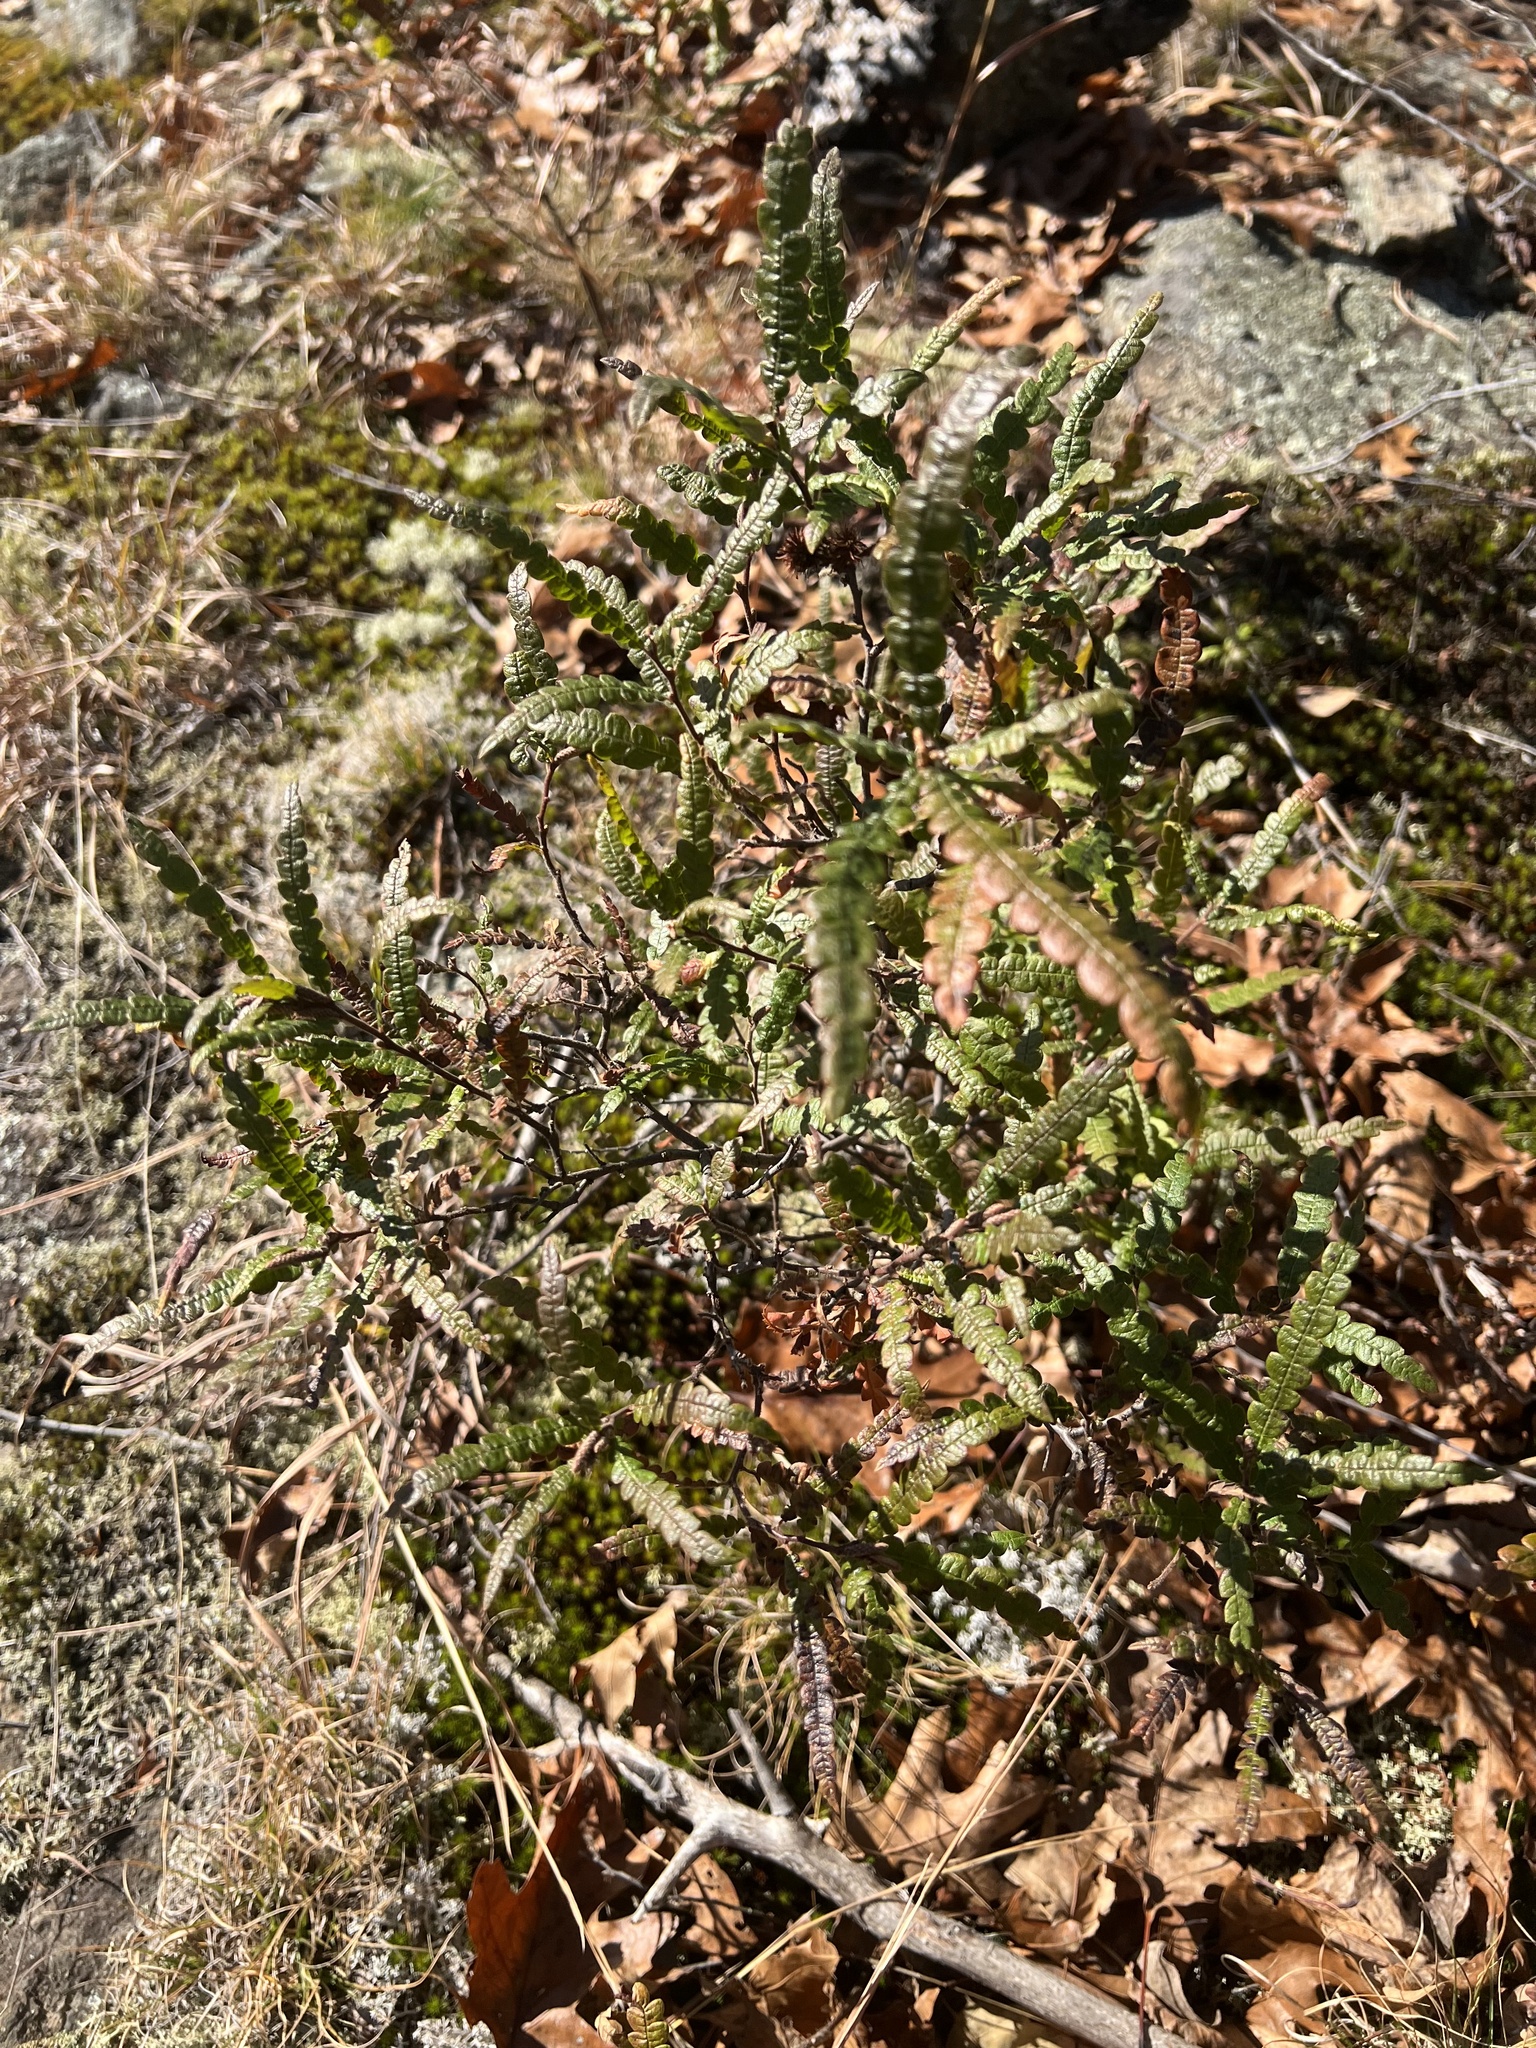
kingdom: Plantae
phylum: Tracheophyta
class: Magnoliopsida
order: Fagales
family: Myricaceae
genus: Comptonia
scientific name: Comptonia peregrina
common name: Sweet-fern
